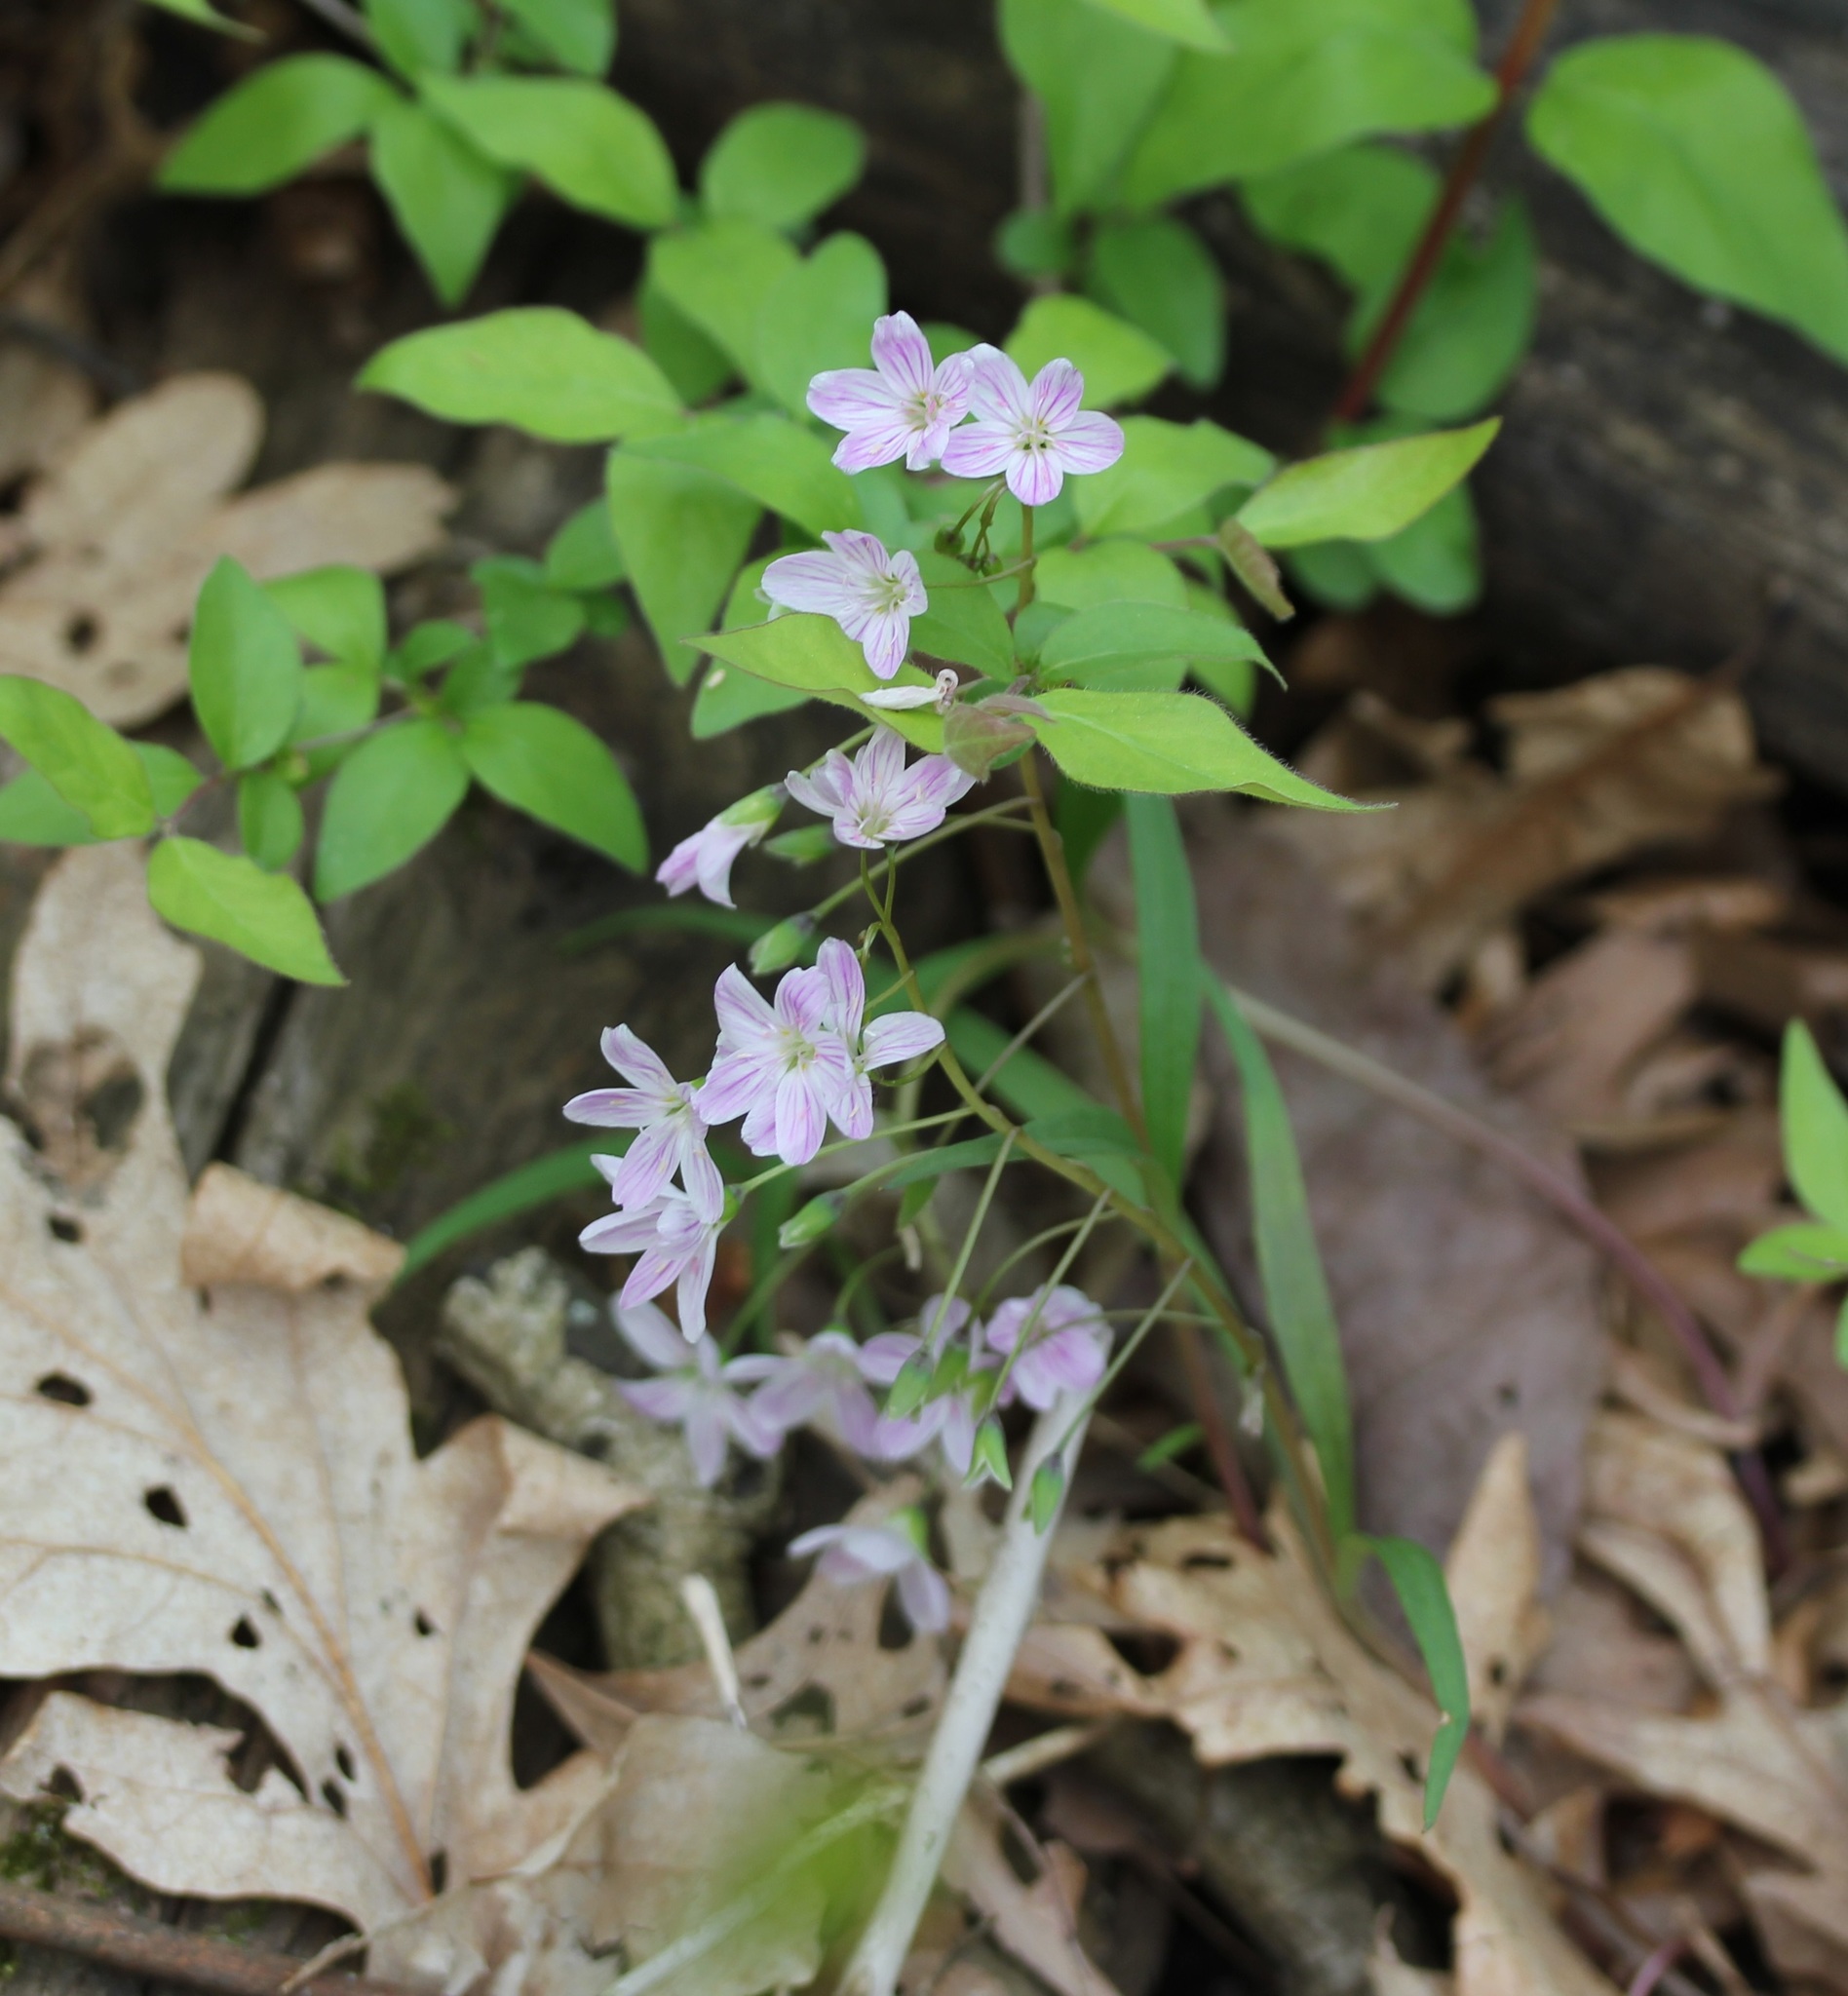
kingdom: Plantae
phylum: Tracheophyta
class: Magnoliopsida
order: Caryophyllales
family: Montiaceae
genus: Claytonia
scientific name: Claytonia virginica
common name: Virginia springbeauty
